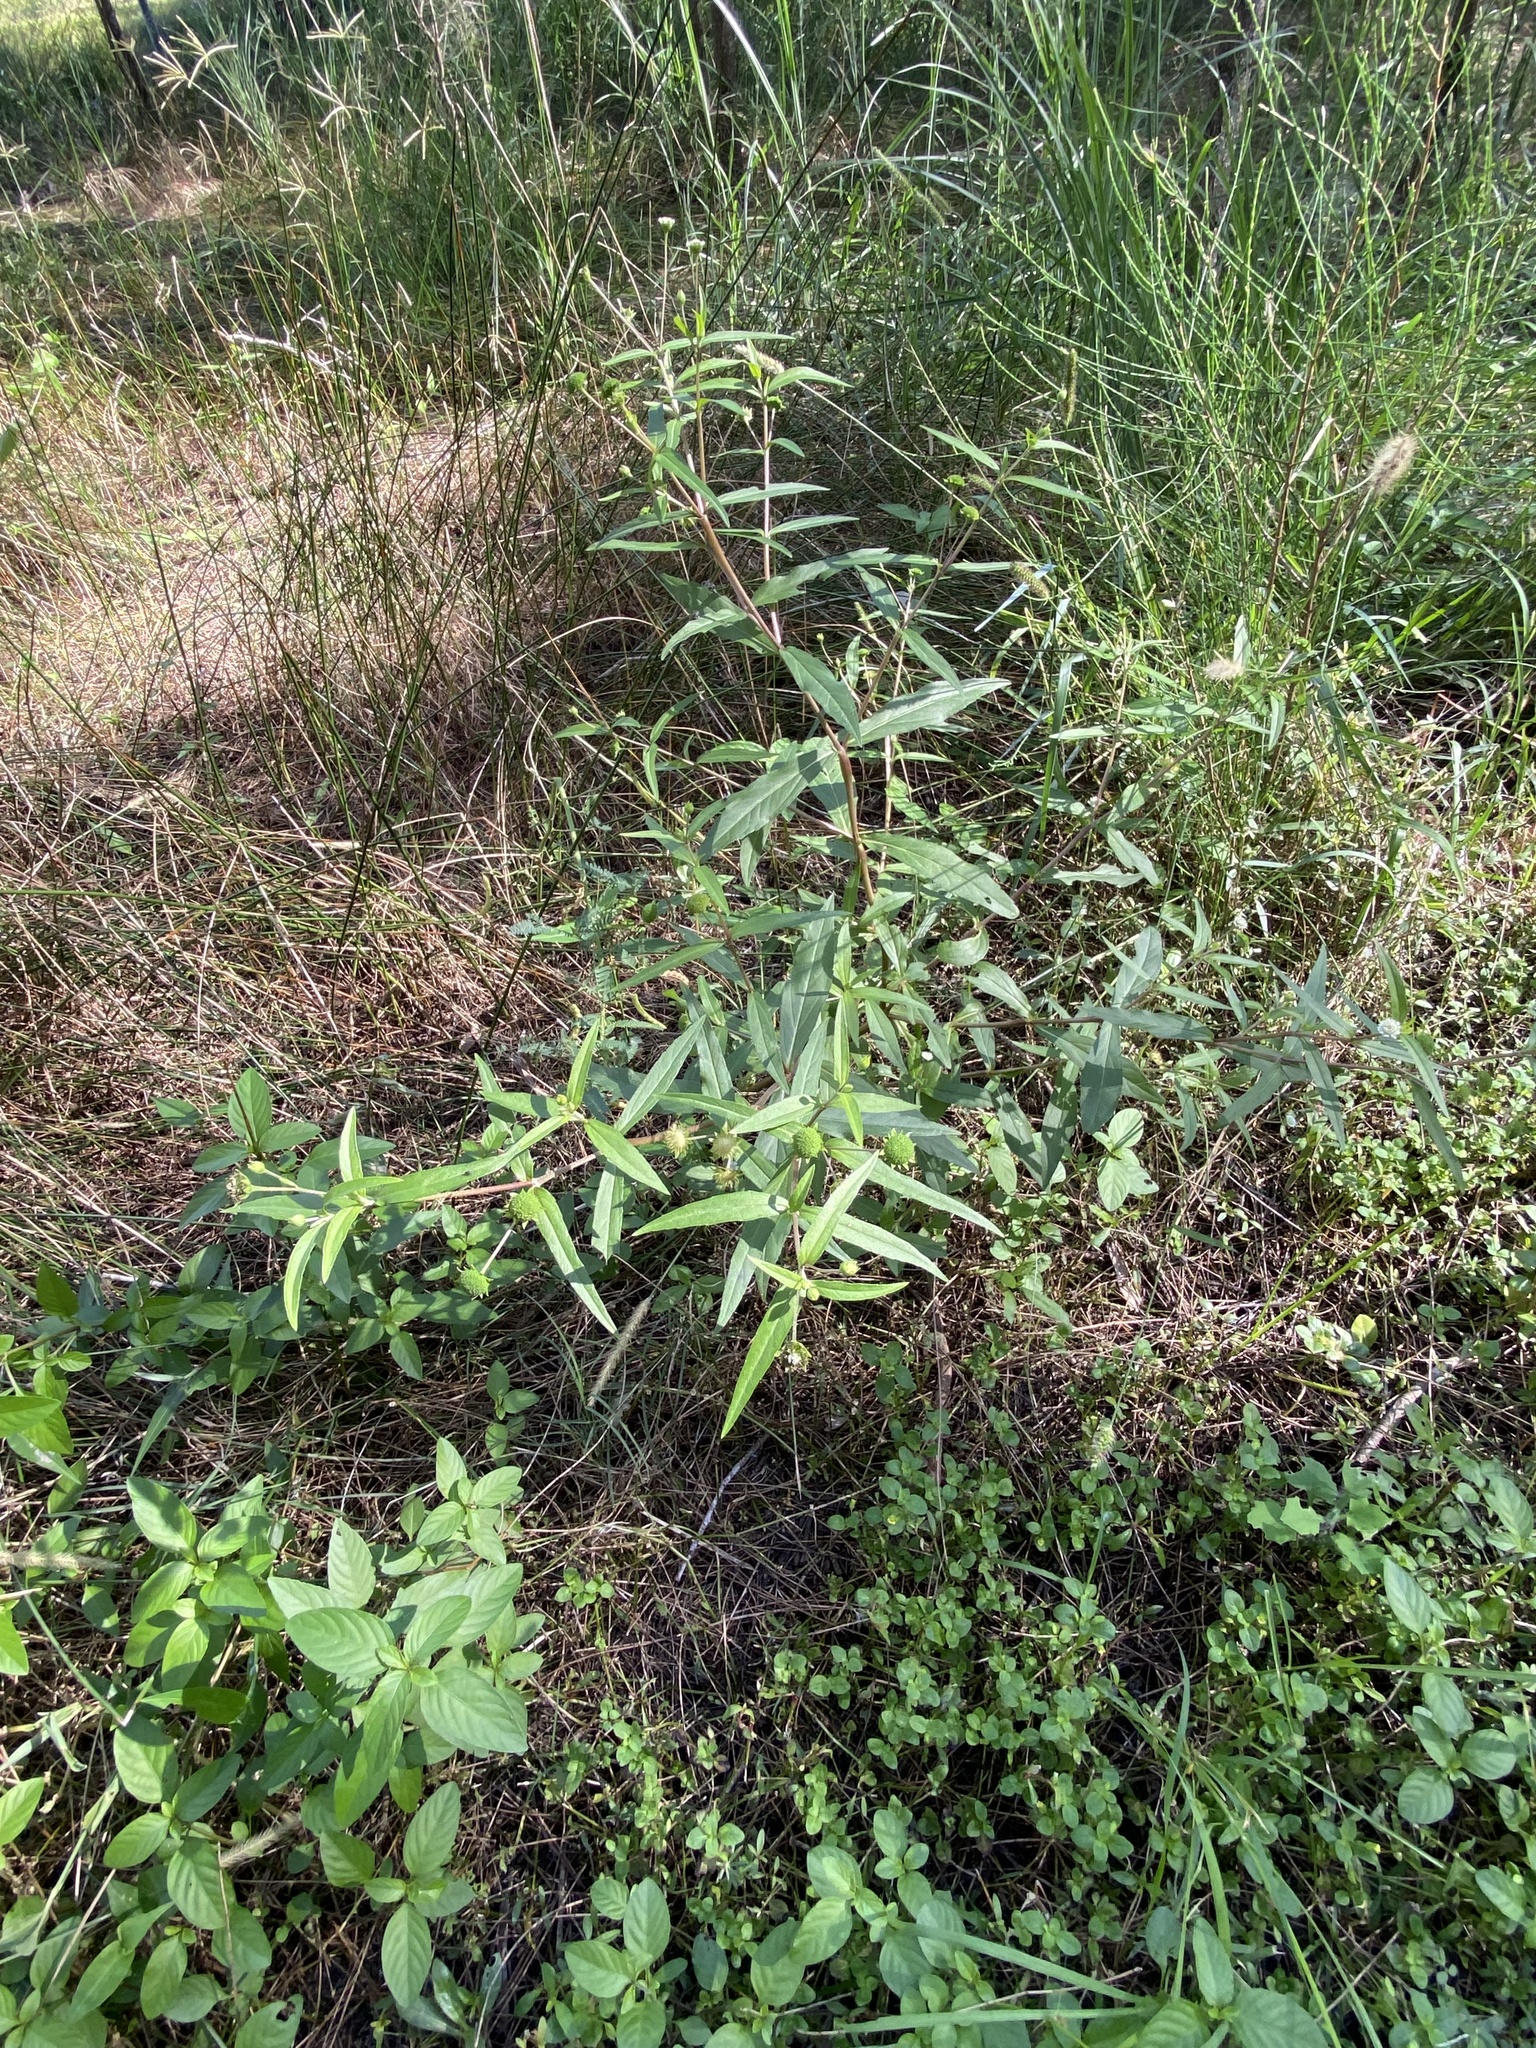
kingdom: Plantae
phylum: Tracheophyta
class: Magnoliopsida
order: Asterales
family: Asteraceae
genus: Eclipta
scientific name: Eclipta prostrata
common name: False daisy
